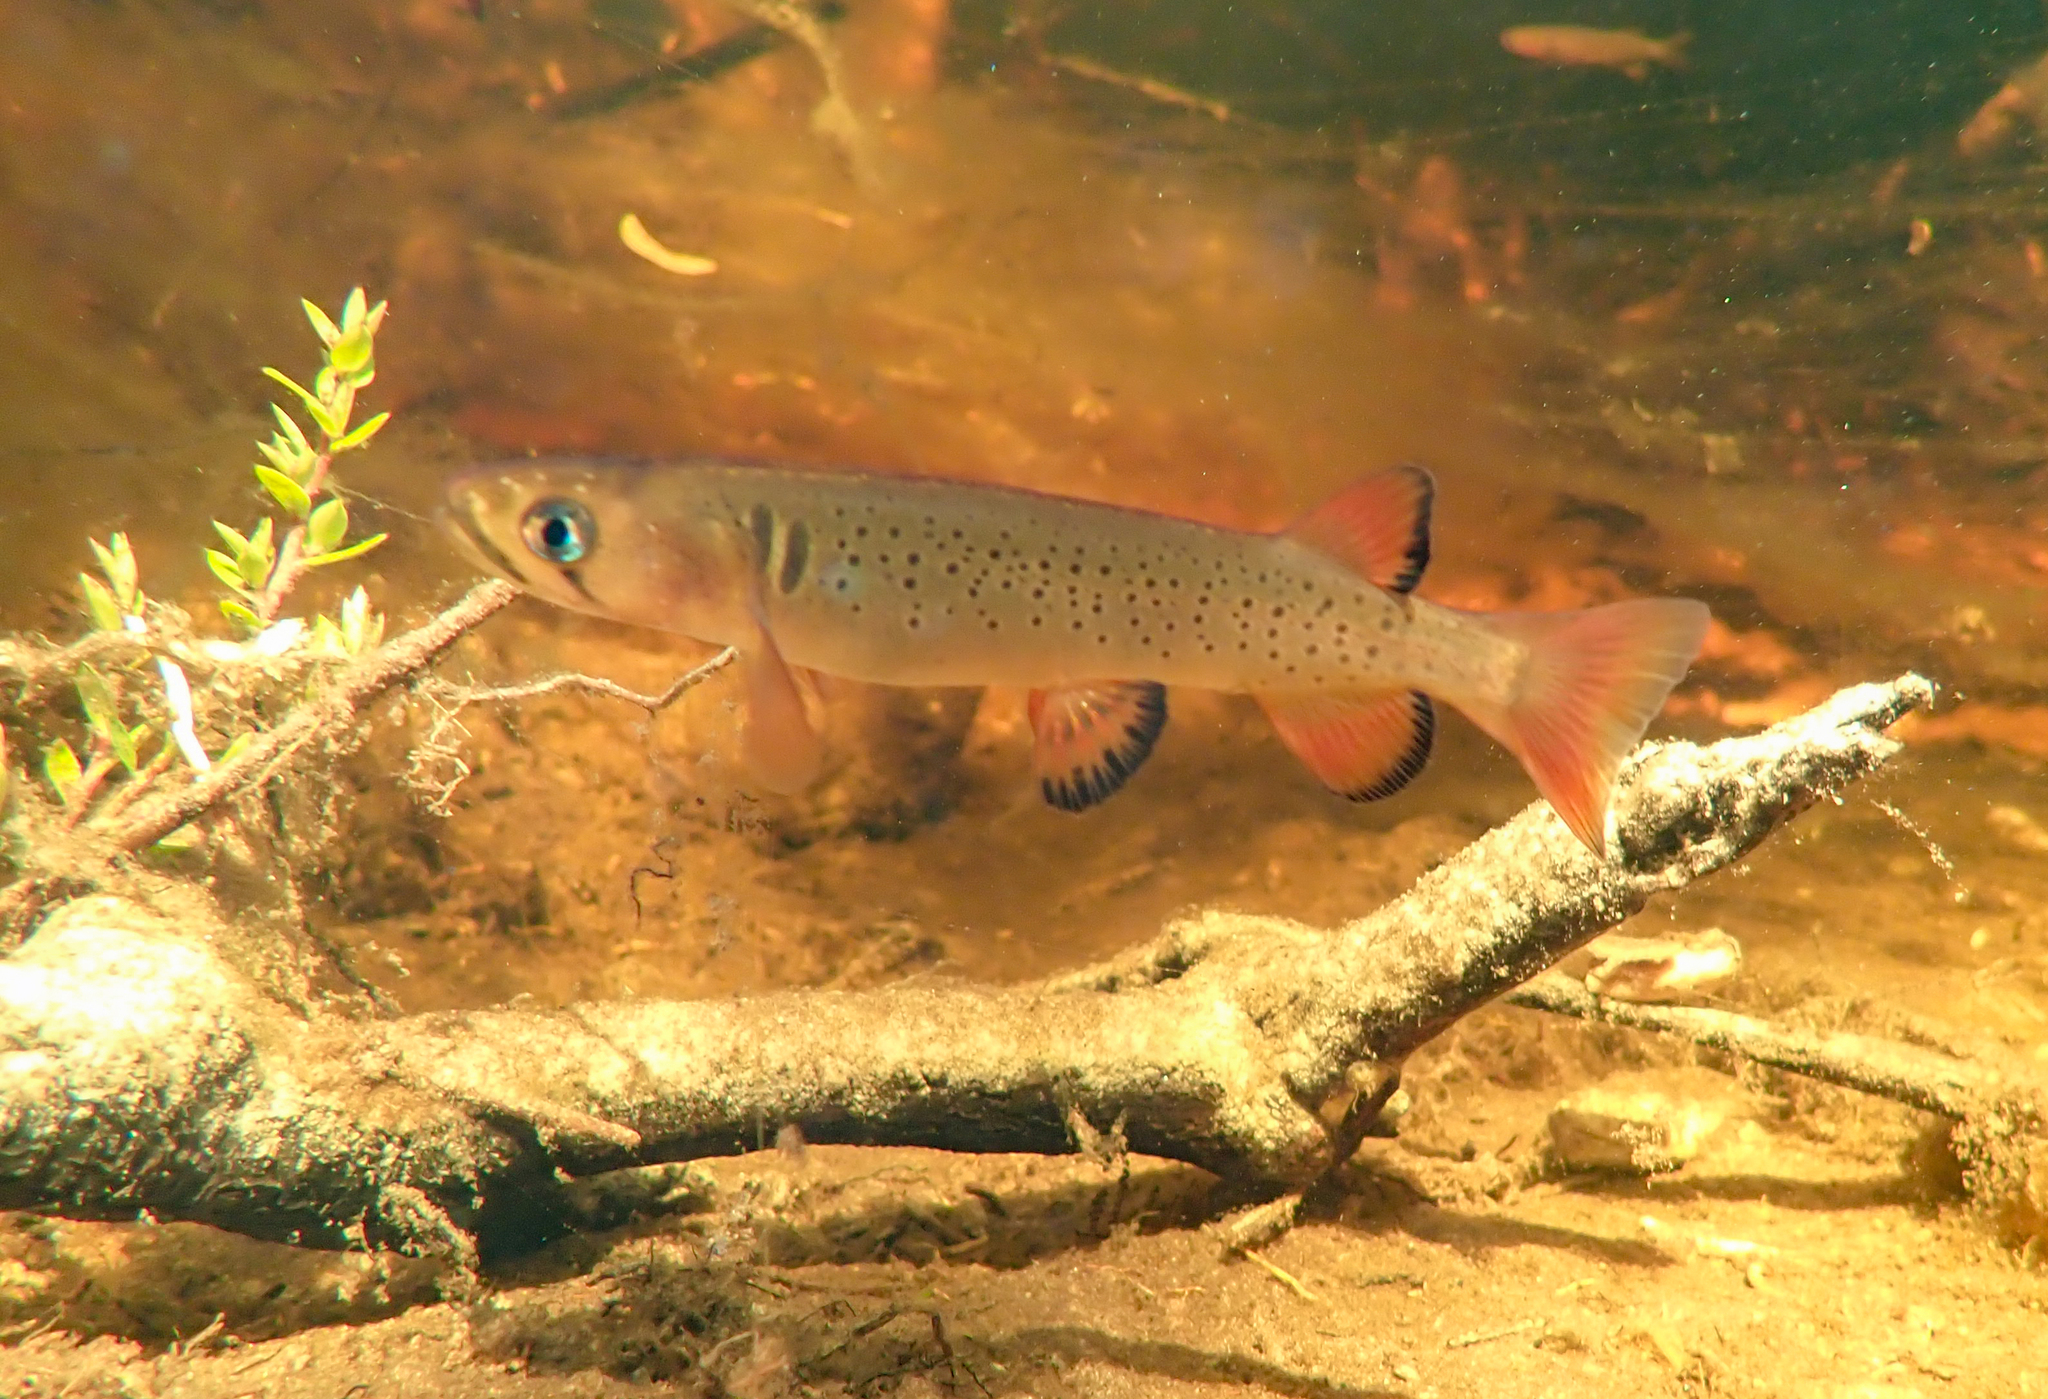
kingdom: Animalia
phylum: Chordata
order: Osmeriformes
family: Galaxiidae
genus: Galaxias
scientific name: Galaxias truttaceus
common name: Spotted galaxias
